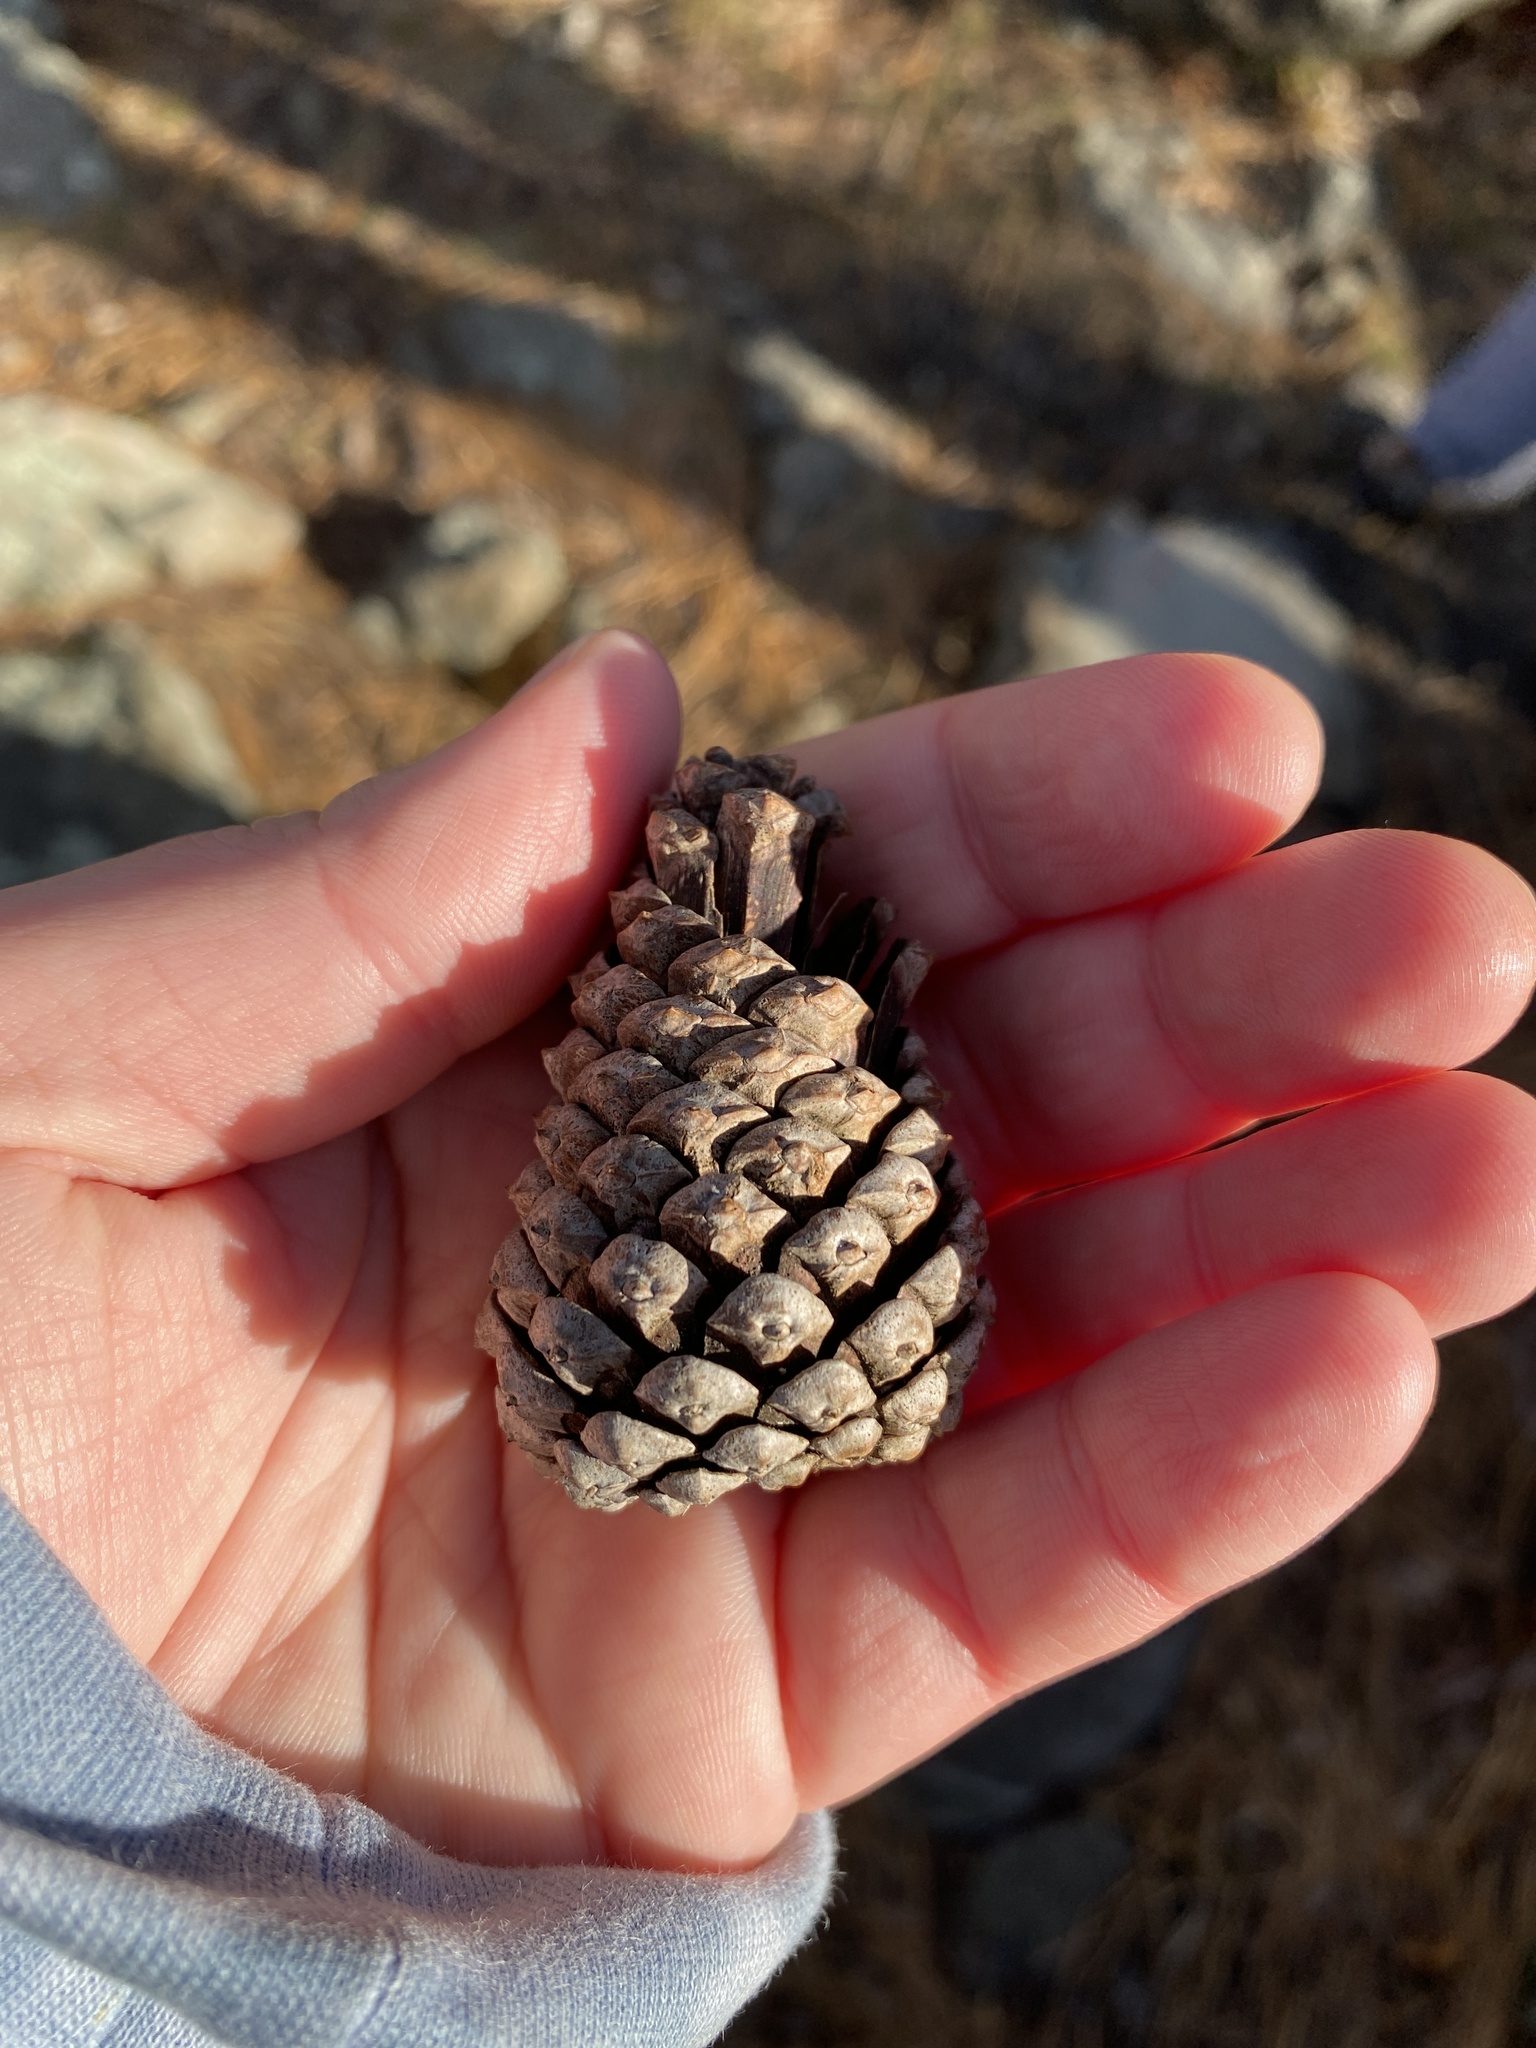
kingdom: Plantae
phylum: Tracheophyta
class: Pinopsida
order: Pinales
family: Pinaceae
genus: Pinus
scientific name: Pinus rigida
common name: Pitch pine
